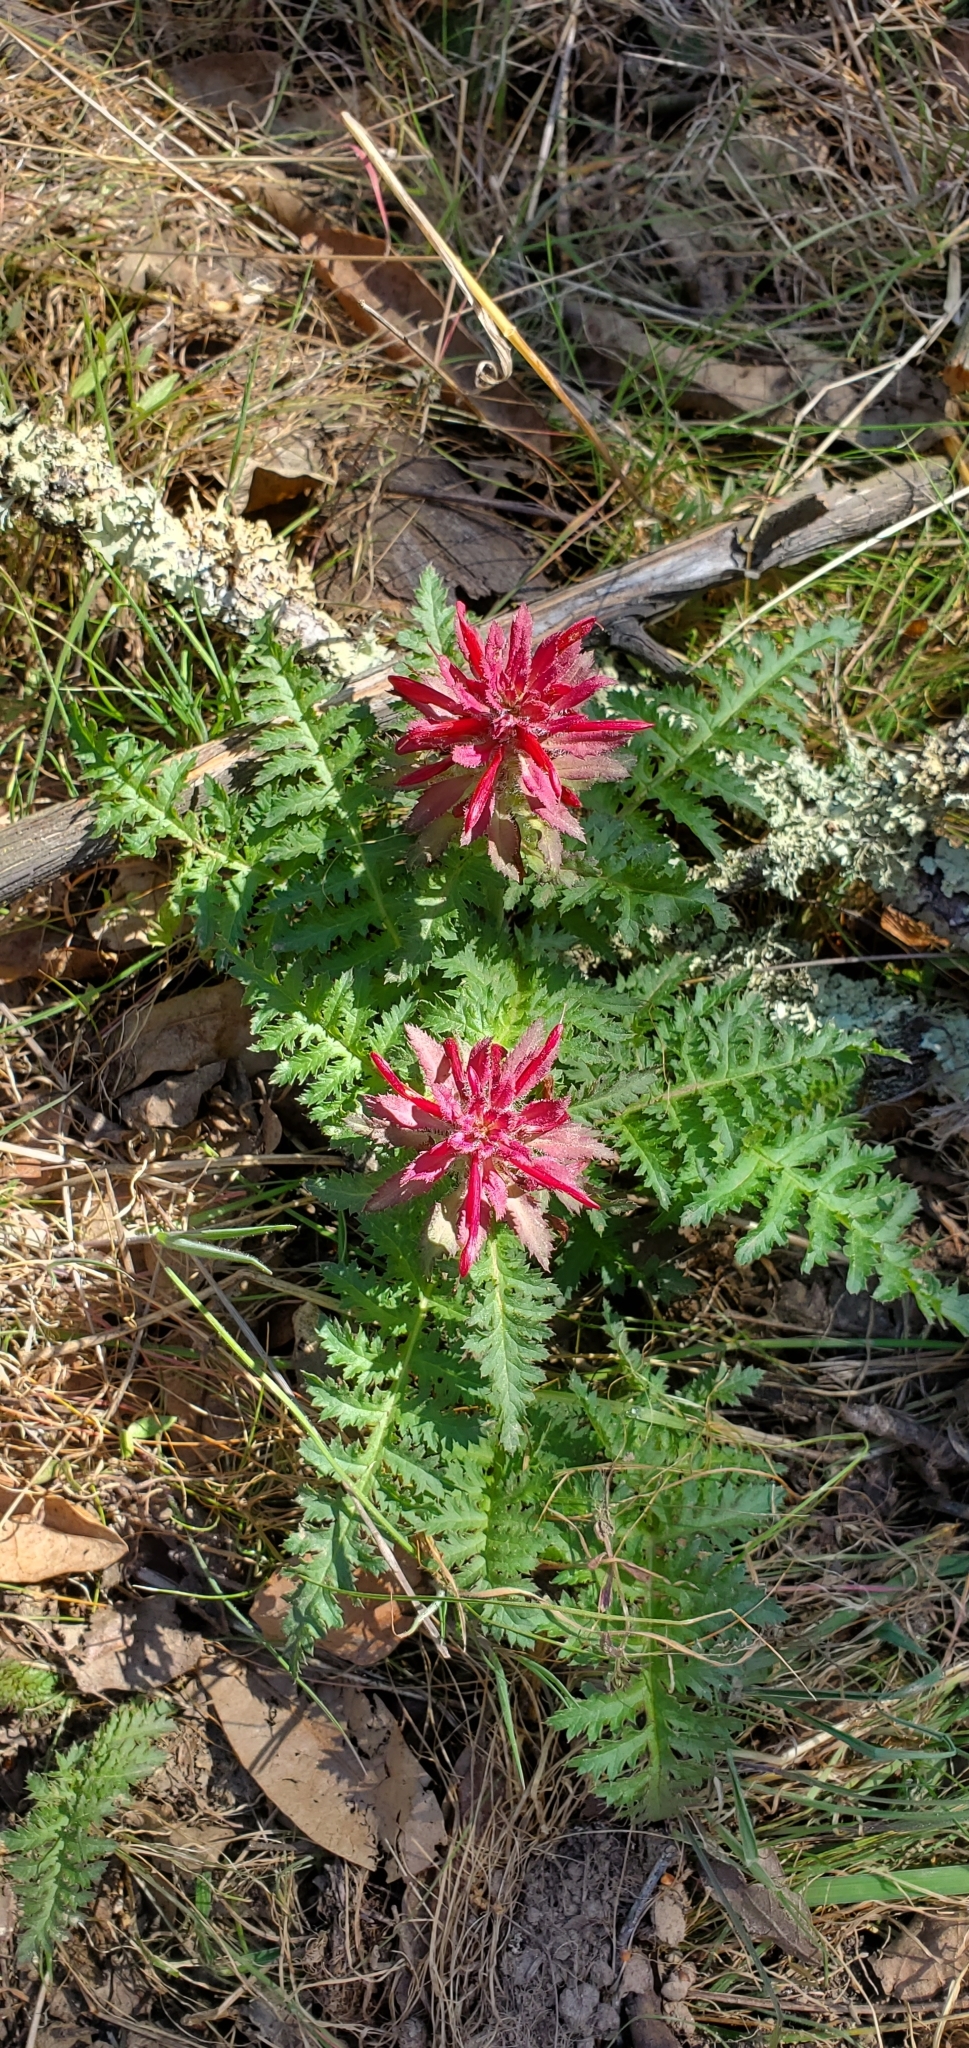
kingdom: Plantae
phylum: Tracheophyta
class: Magnoliopsida
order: Lamiales
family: Orobanchaceae
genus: Pedicularis
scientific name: Pedicularis densiflora
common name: Indian warrior
